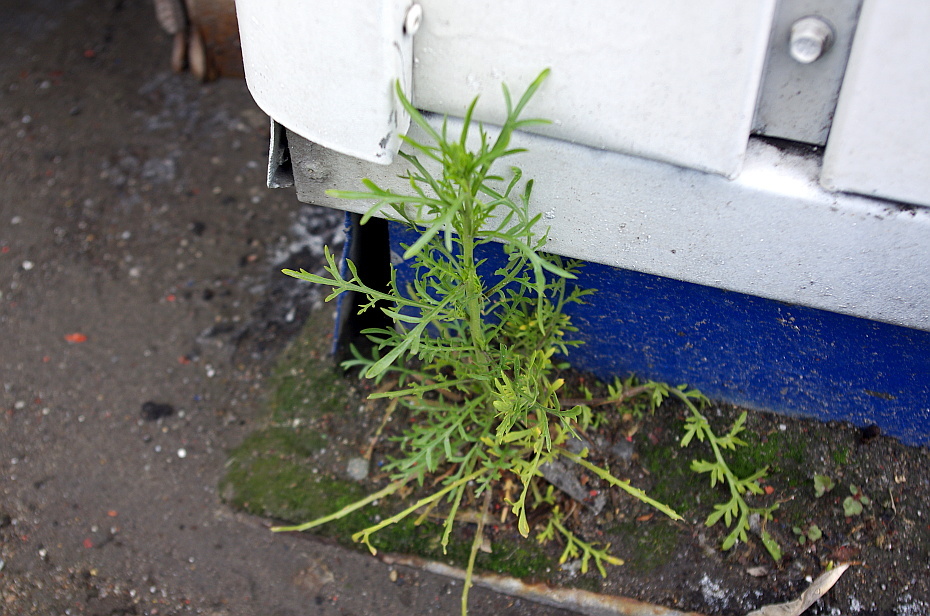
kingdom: Plantae
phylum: Tracheophyta
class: Magnoliopsida
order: Brassicales
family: Brassicaceae
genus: Lepidium
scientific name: Lepidium ruderale
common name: Narrow-leaved pepperwort
